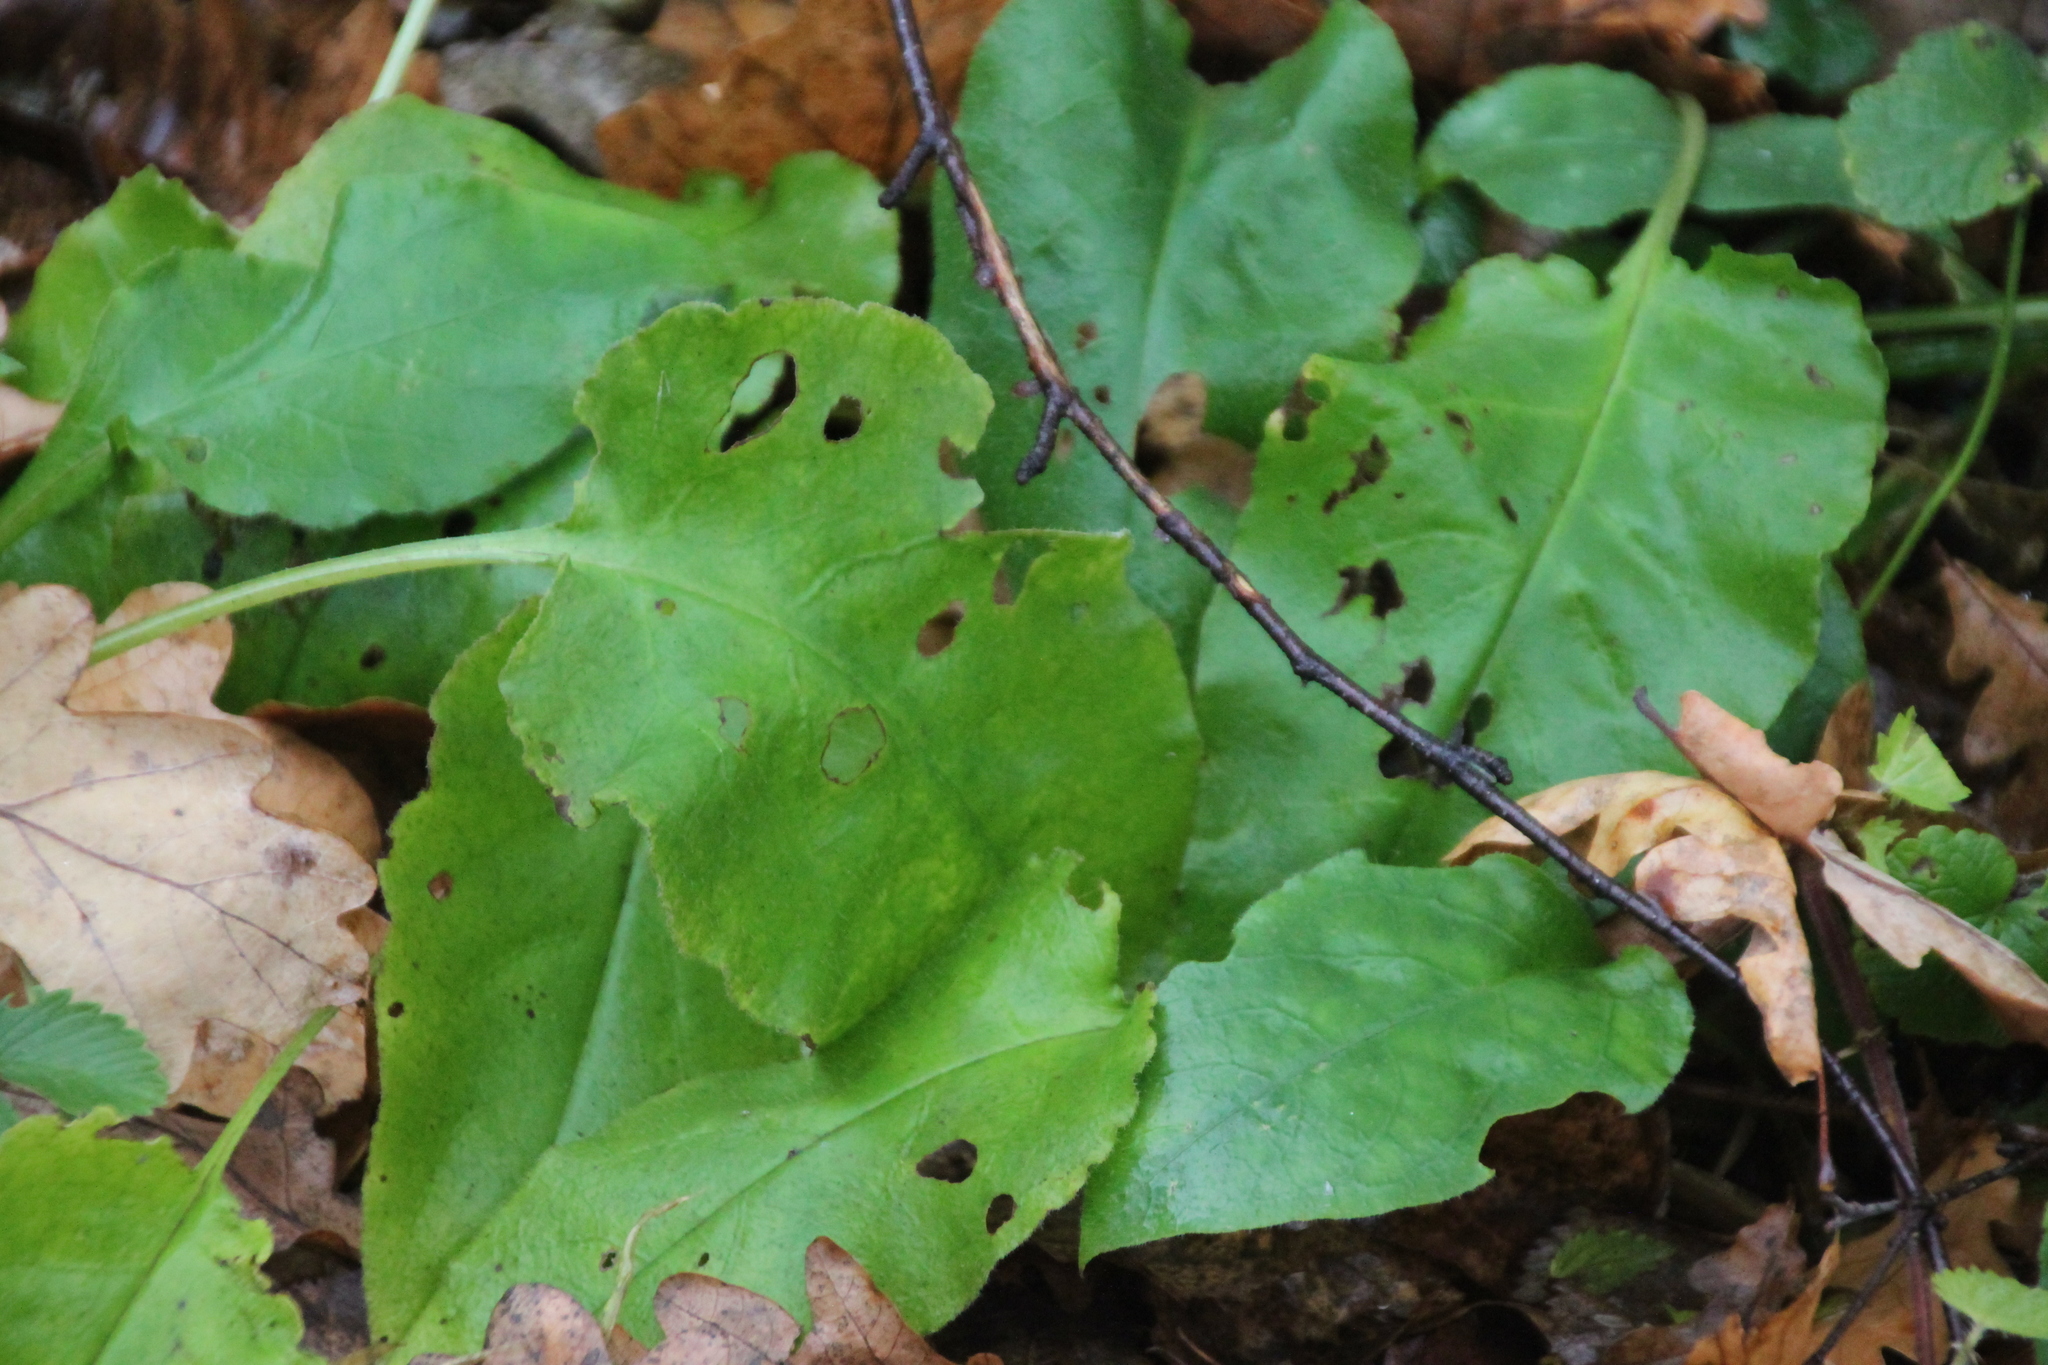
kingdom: Plantae
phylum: Tracheophyta
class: Magnoliopsida
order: Boraginales
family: Boraginaceae
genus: Pulmonaria
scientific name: Pulmonaria obscura
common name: Suffolk lungwort
